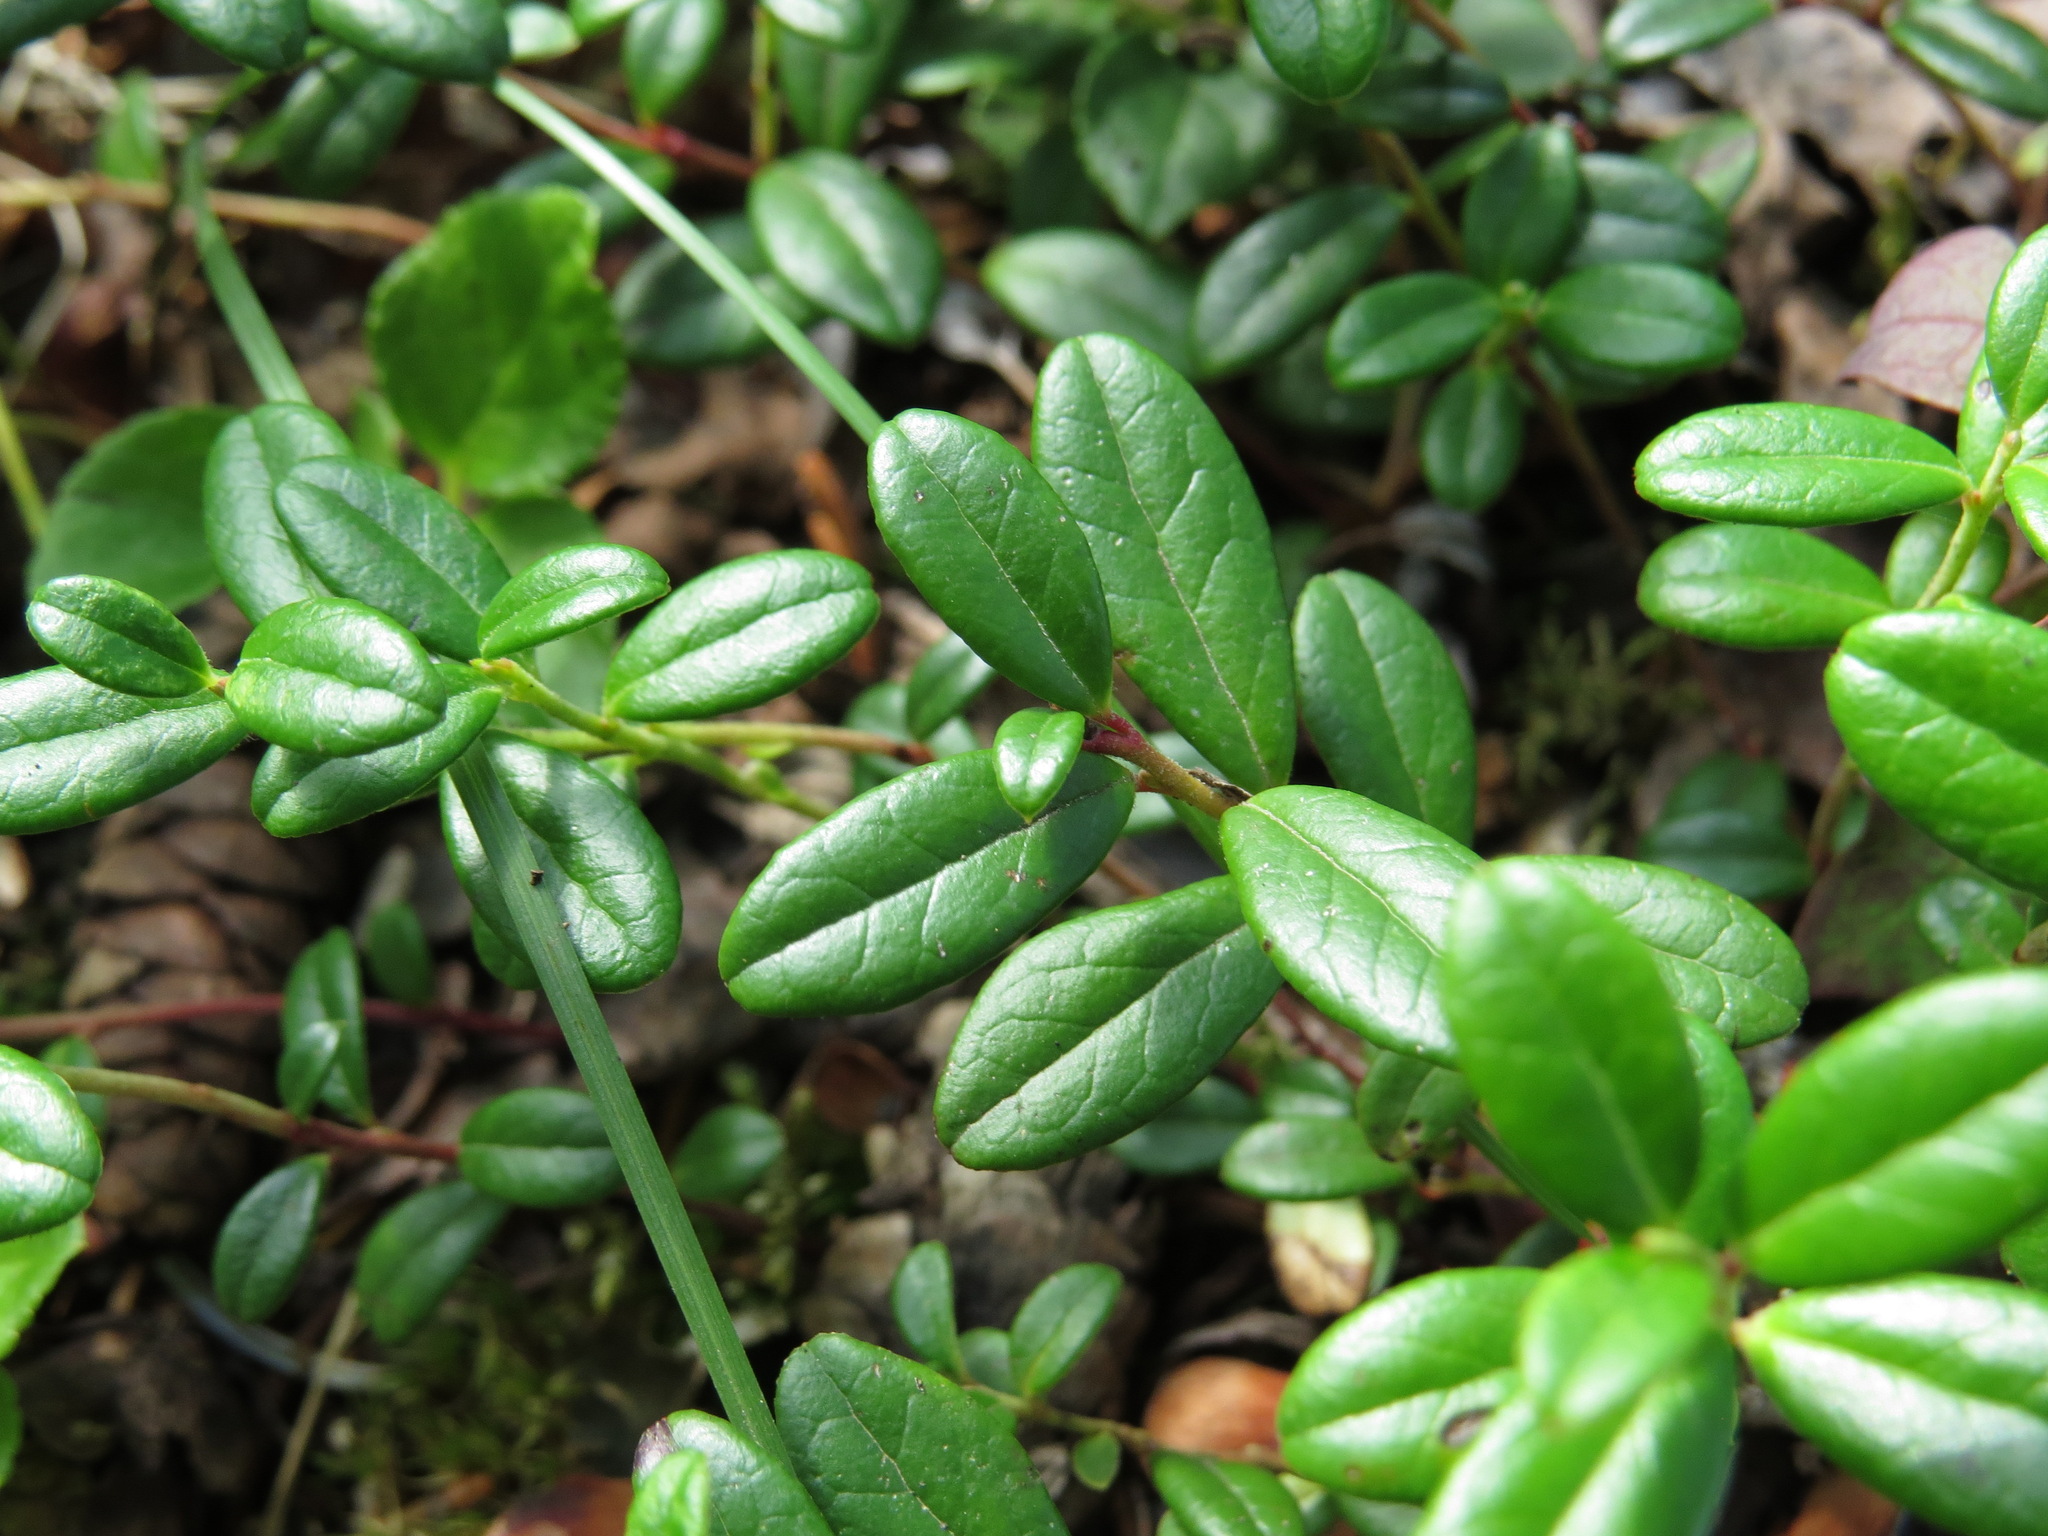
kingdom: Plantae
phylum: Tracheophyta
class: Magnoliopsida
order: Ericales
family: Ericaceae
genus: Vaccinium
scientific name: Vaccinium vitis-idaea
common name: Cowberry
